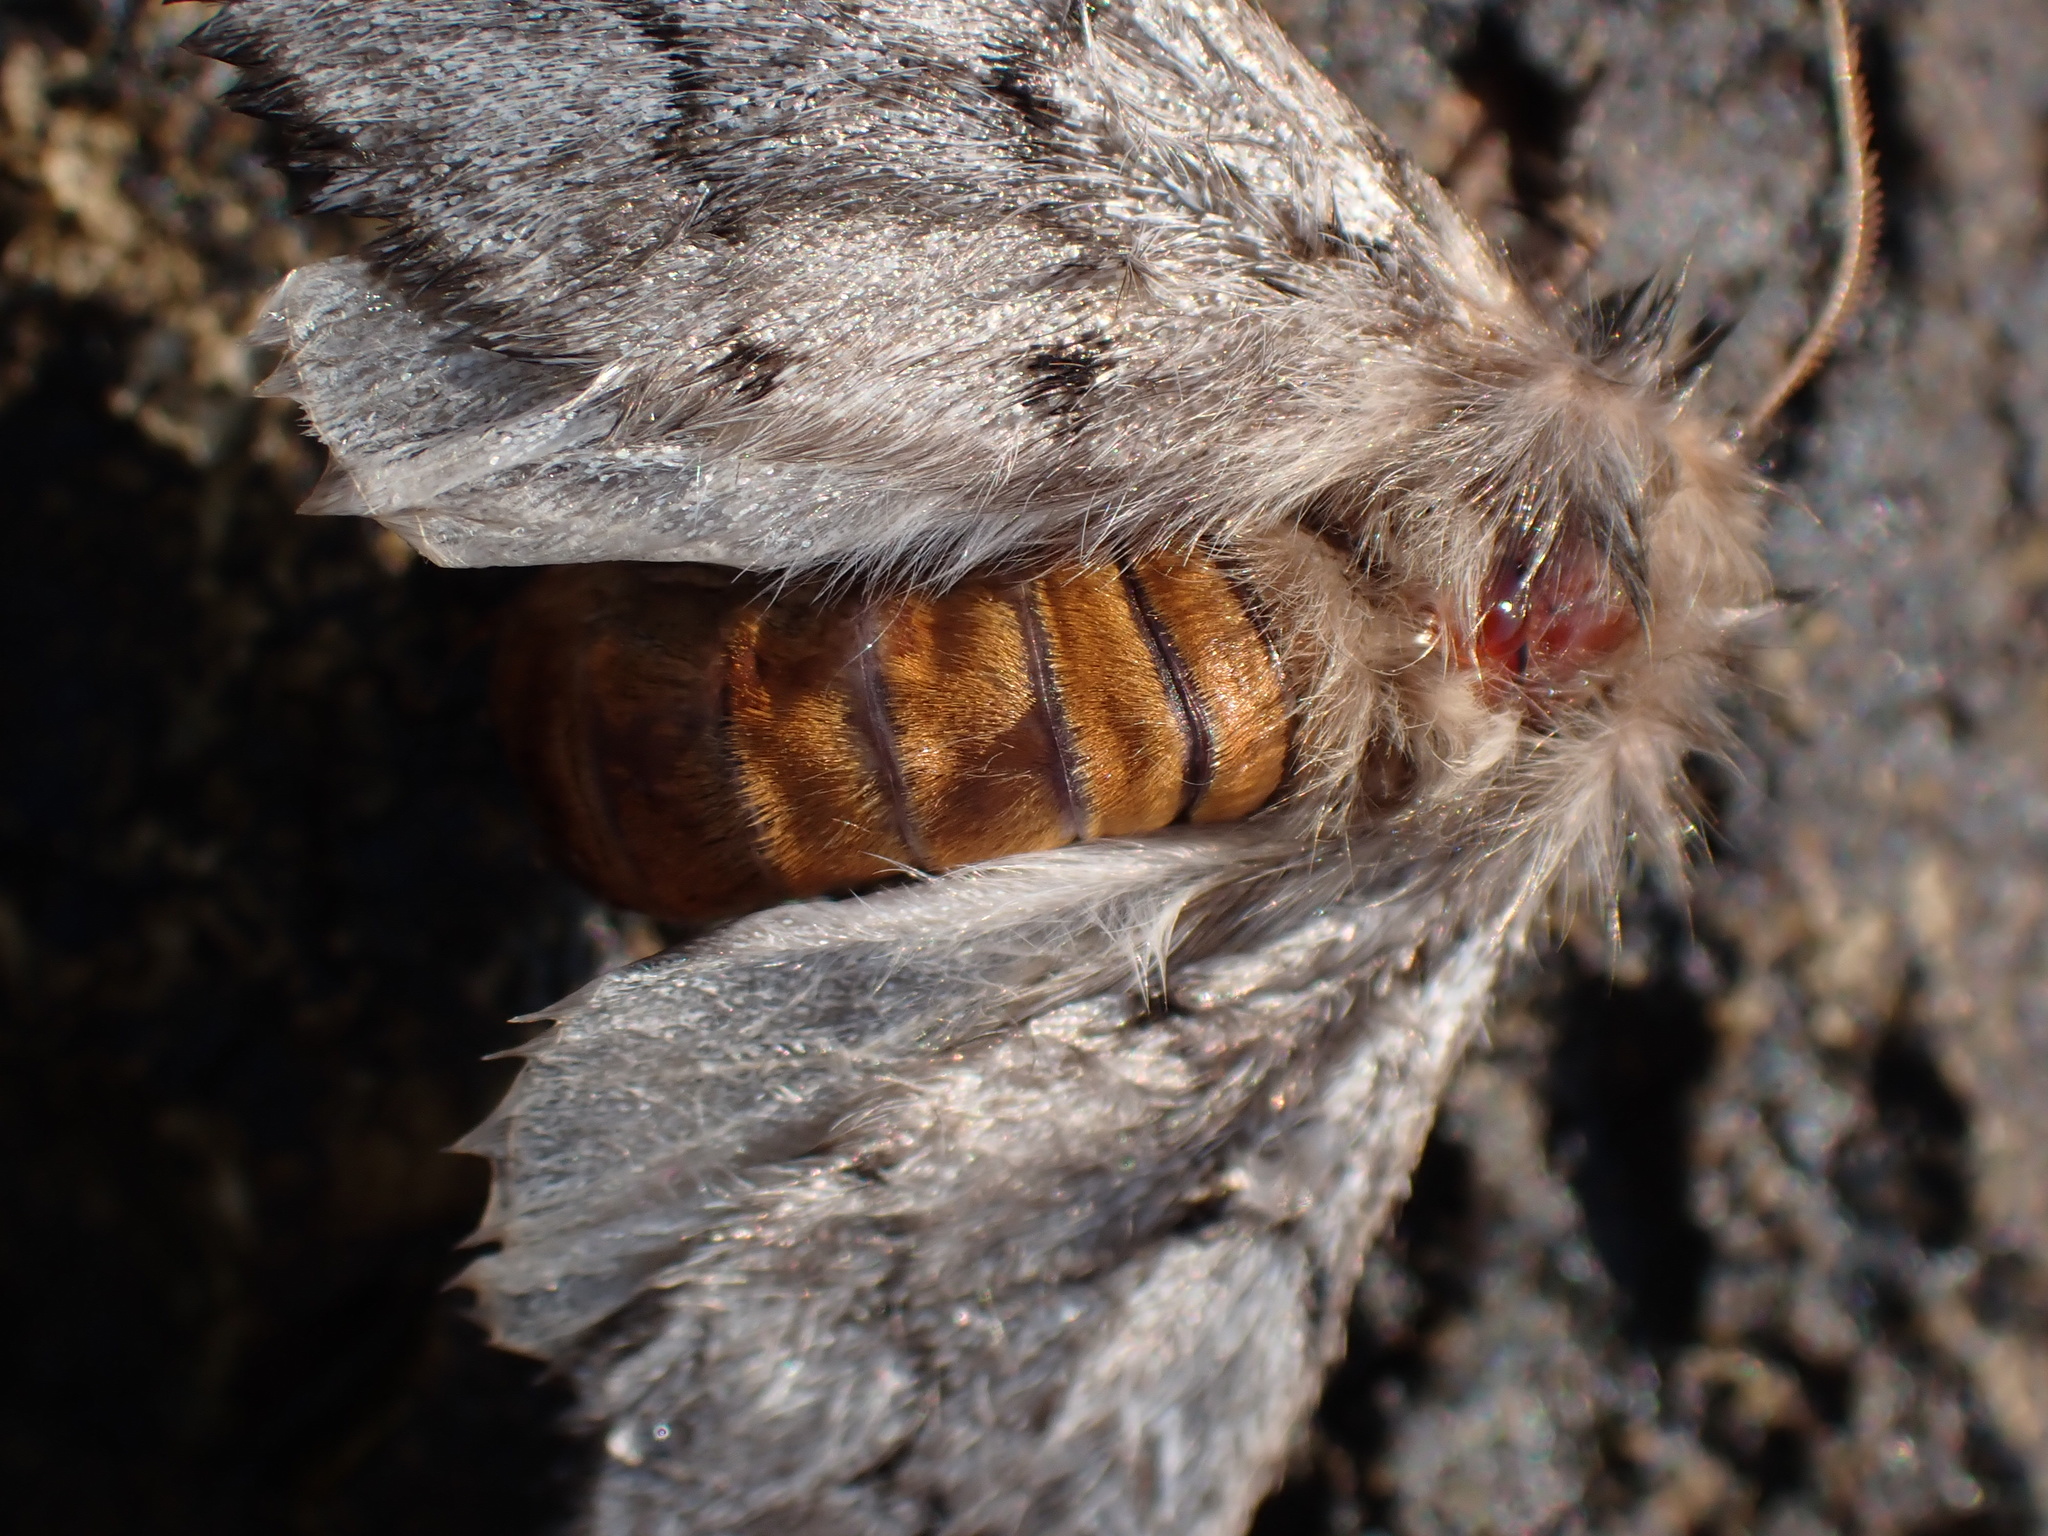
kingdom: Animalia
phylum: Arthropoda
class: Insecta
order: Lepidoptera
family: Notodontidae
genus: Thaumetopoea
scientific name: Thaumetopoea pityocampa
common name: Pine processionary
